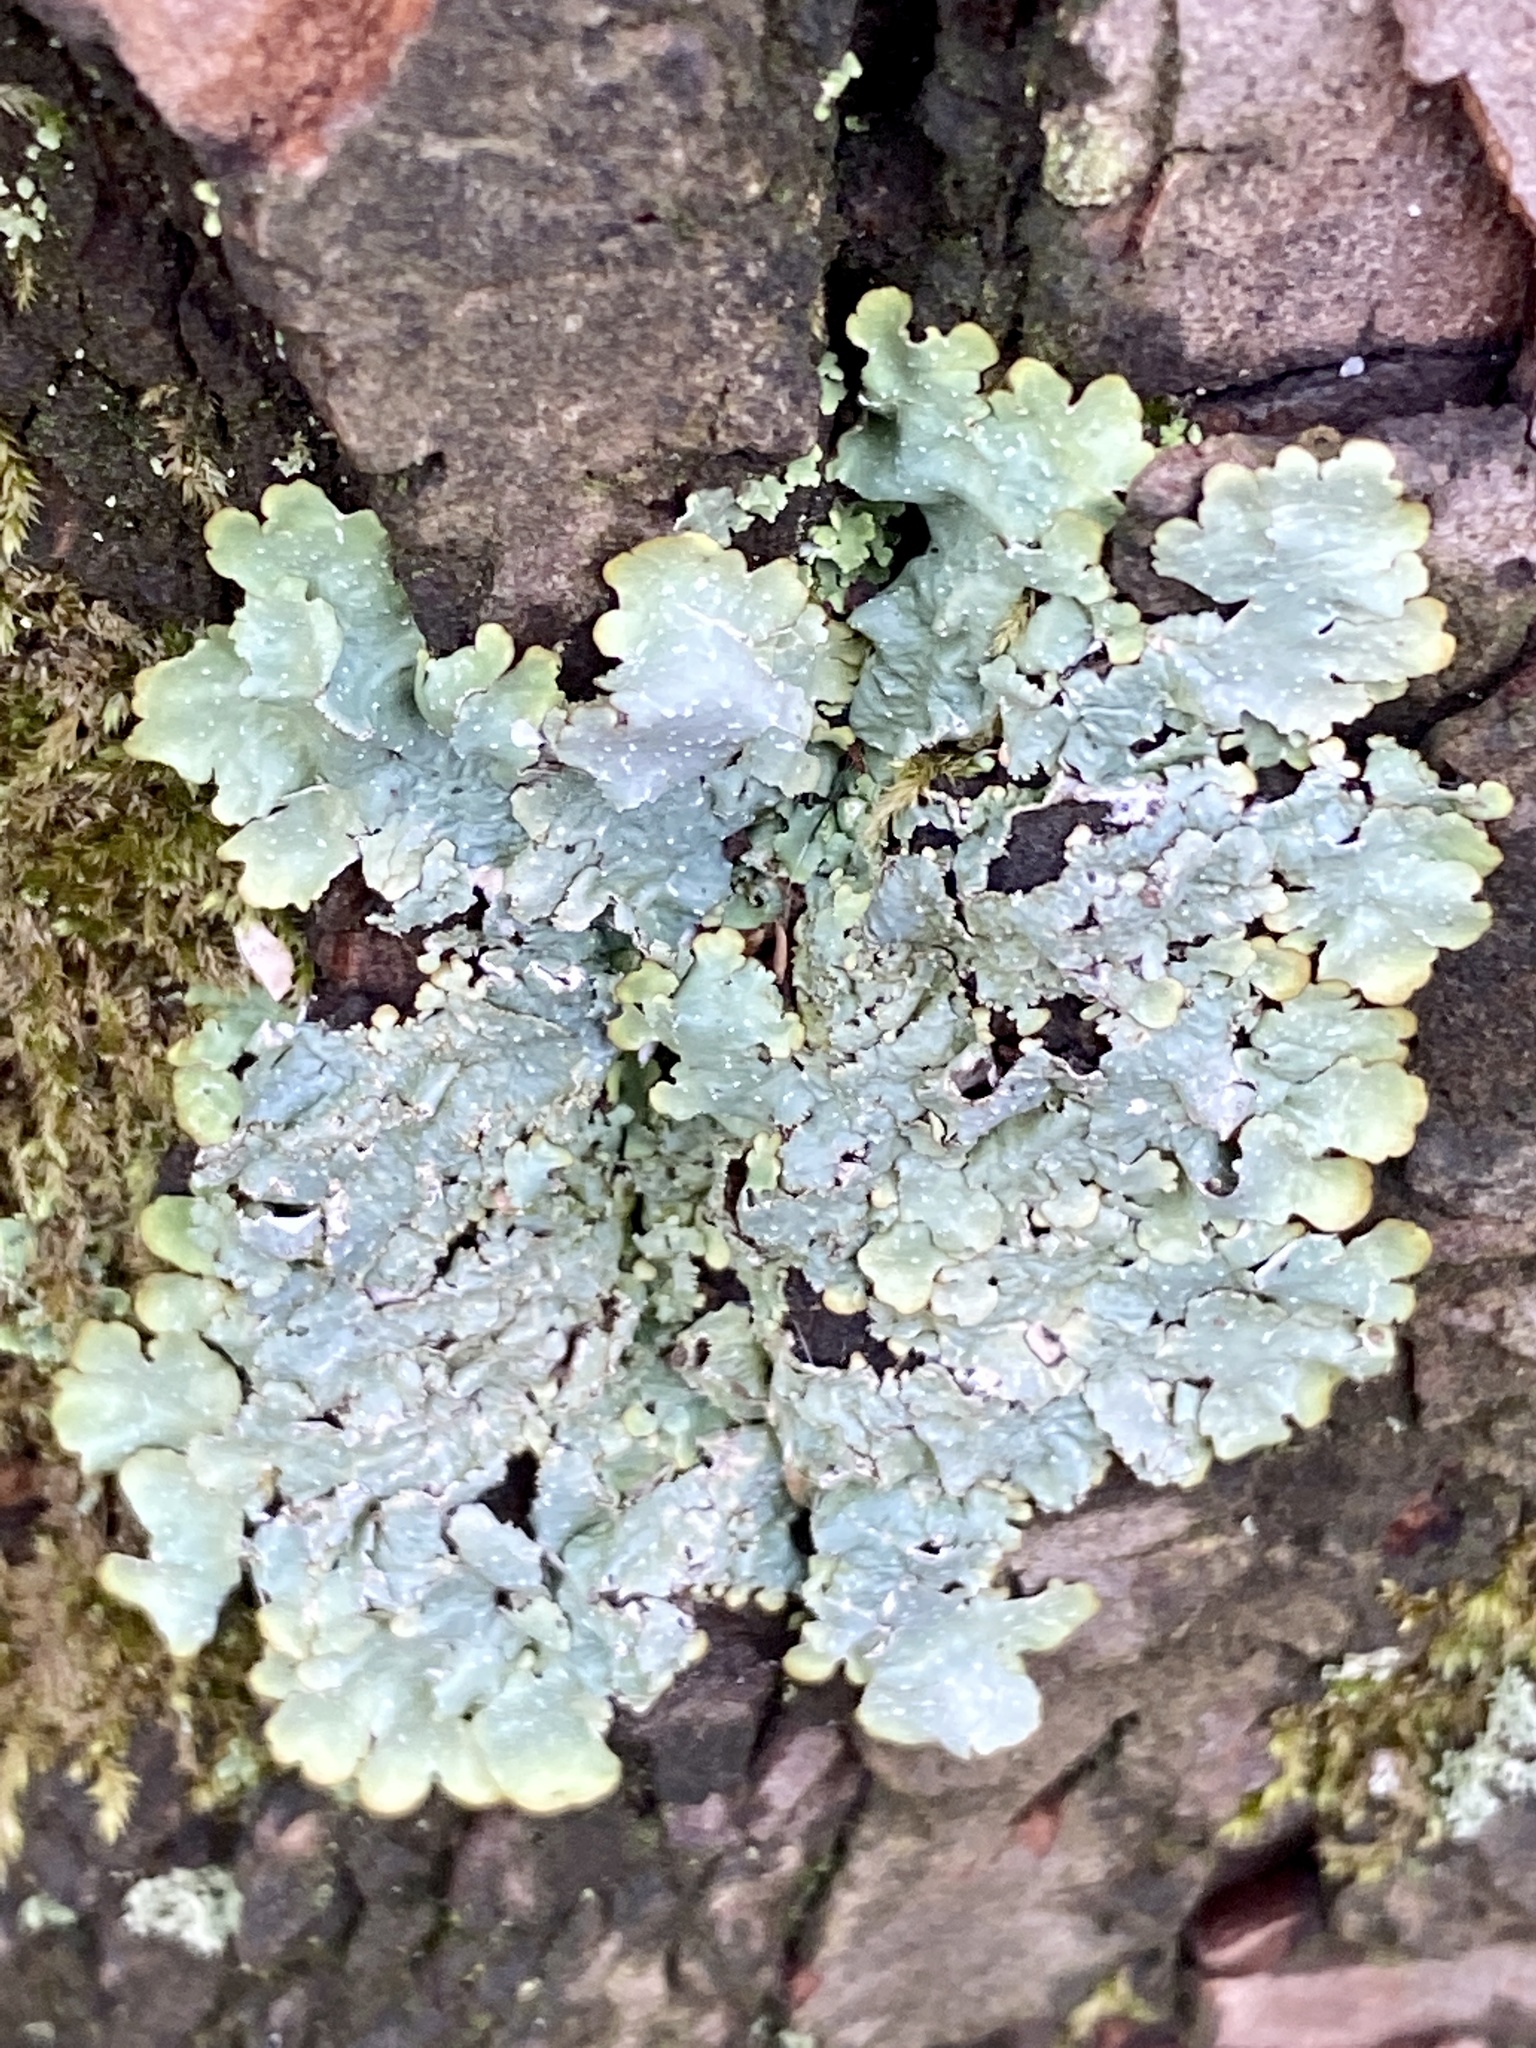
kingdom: Fungi
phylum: Ascomycota
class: Lecanoromycetes
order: Lecanorales
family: Parmeliaceae
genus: Punctelia
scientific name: Punctelia rudecta
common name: Rough speckled shield lichen
